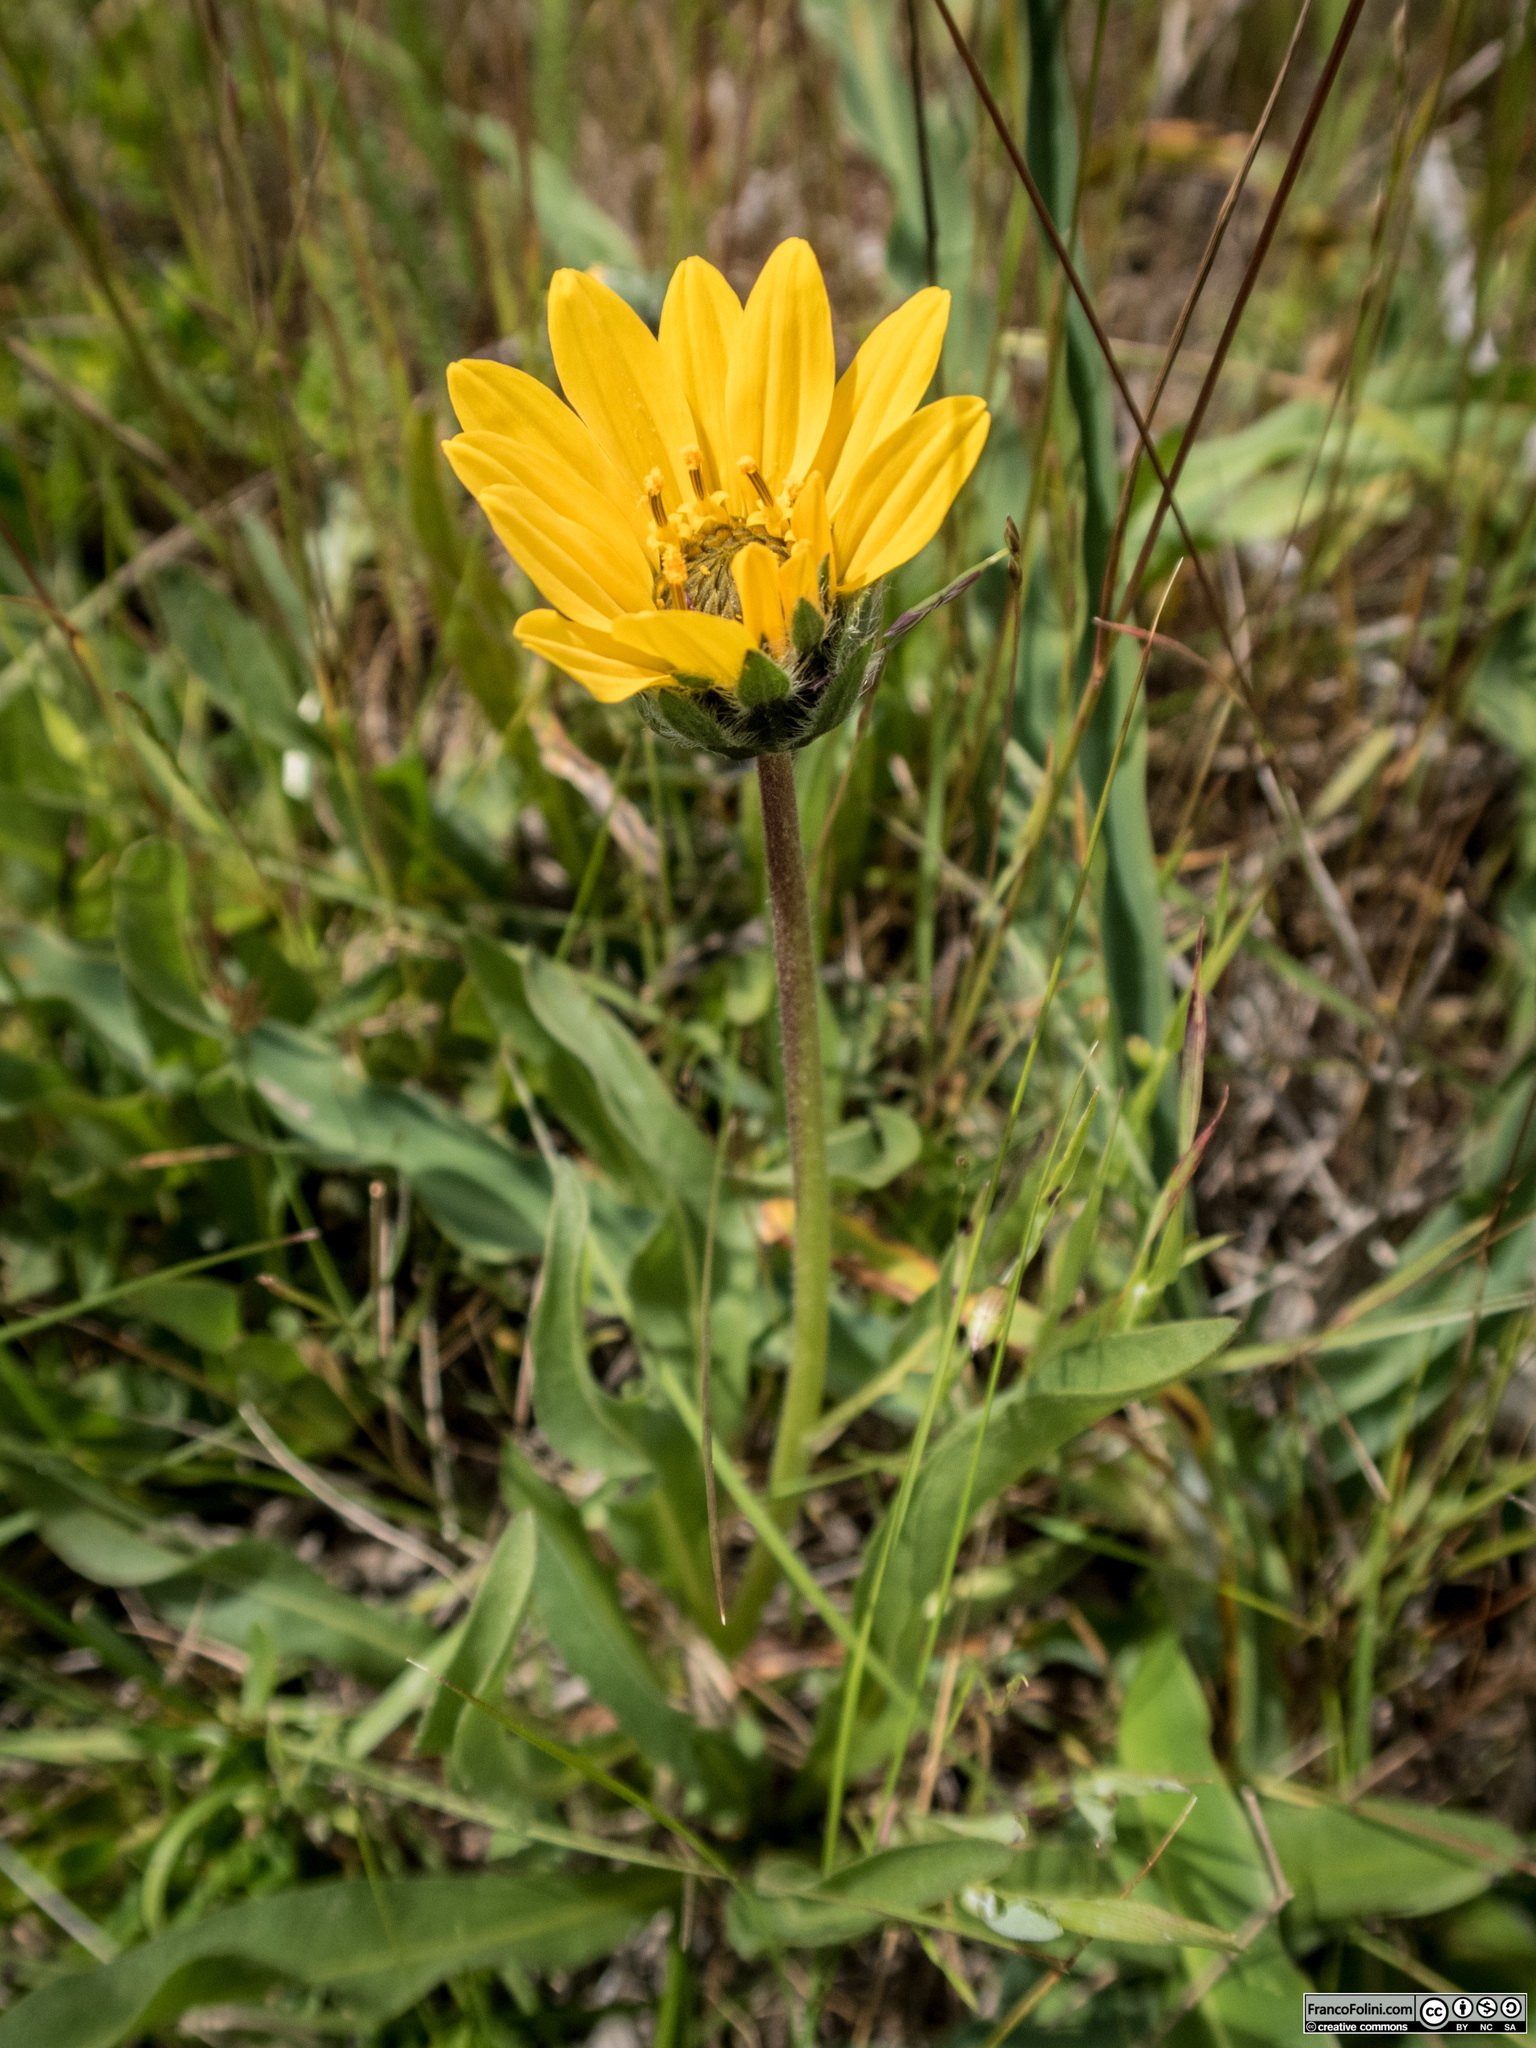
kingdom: Plantae
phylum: Tracheophyta
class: Magnoliopsida
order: Asterales
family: Asteraceae
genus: Wyethia
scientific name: Wyethia angustifolia
